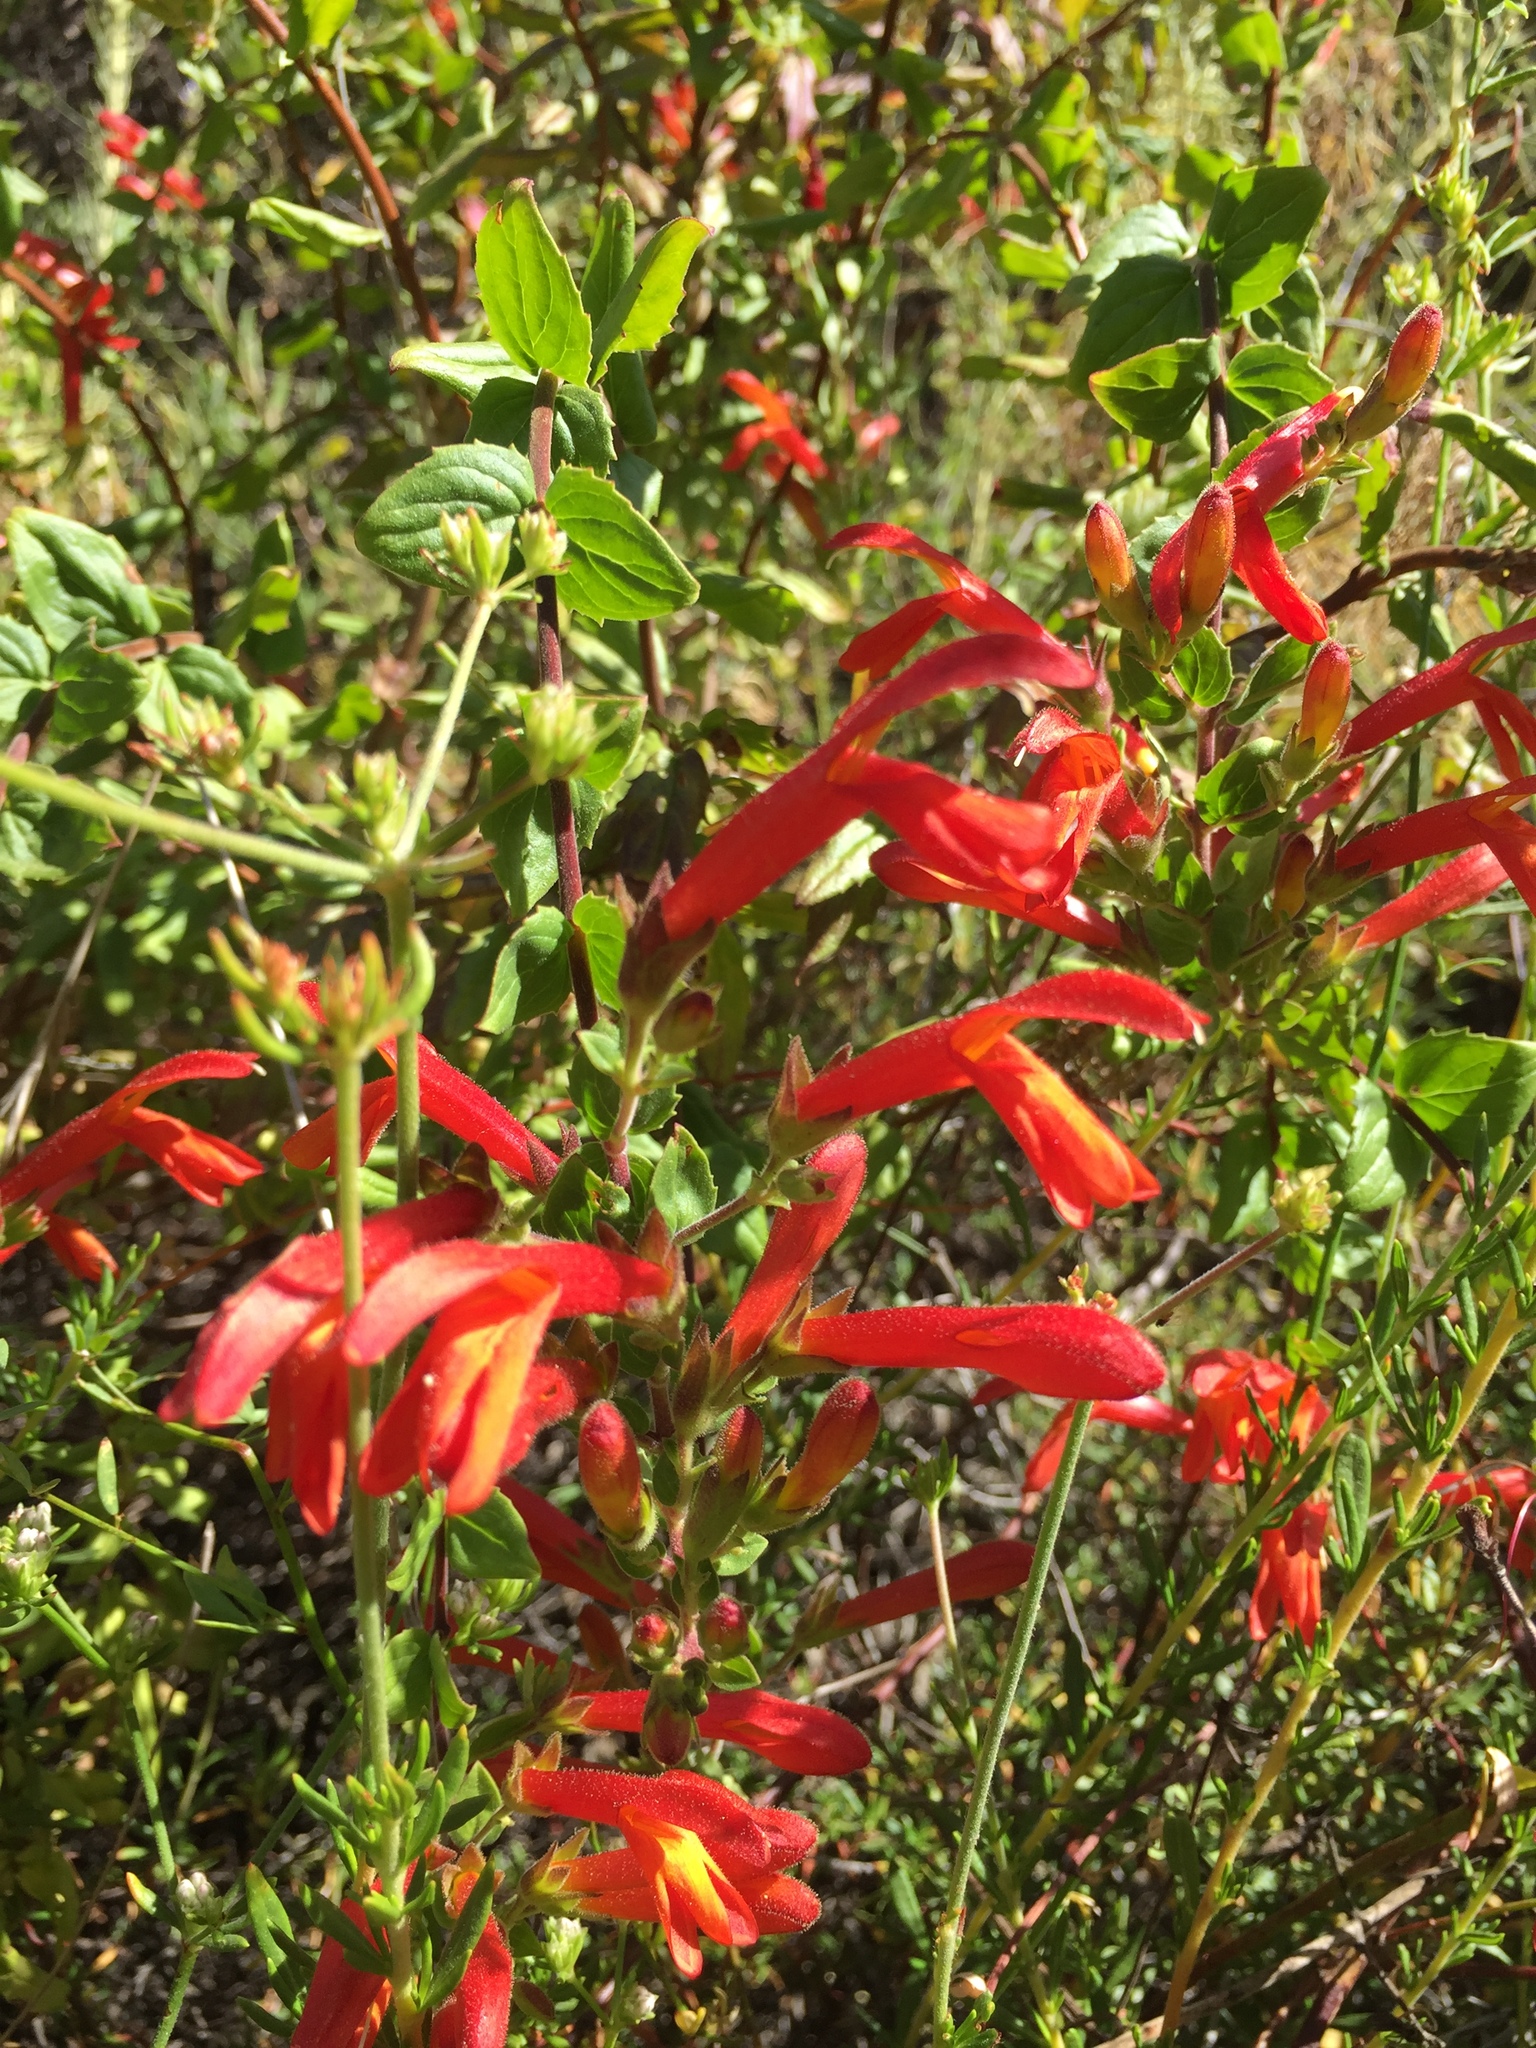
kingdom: Plantae
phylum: Tracheophyta
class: Magnoliopsida
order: Lamiales
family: Plantaginaceae
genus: Keckiella
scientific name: Keckiella cordifolia
